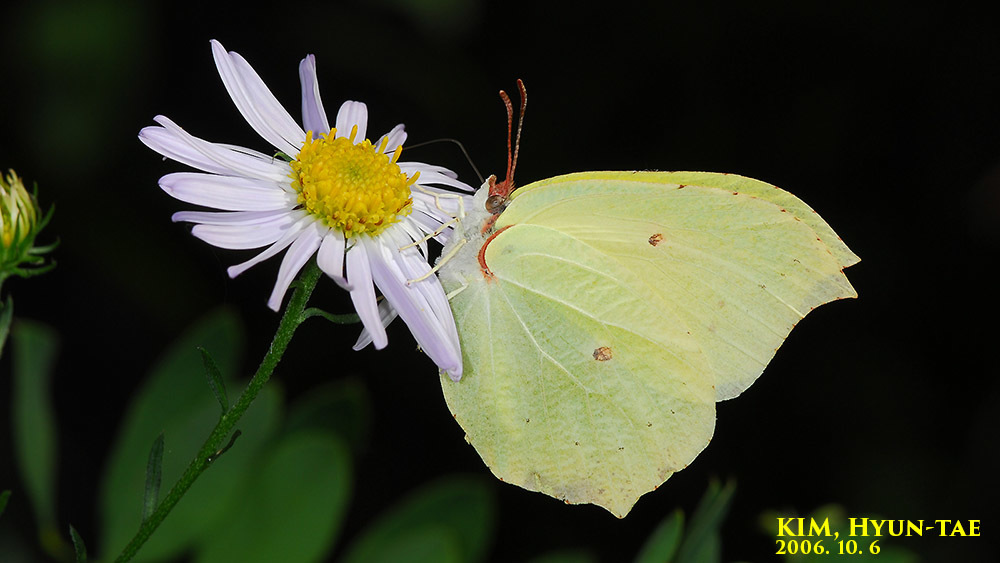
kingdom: Animalia
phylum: Arthropoda
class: Insecta
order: Lepidoptera
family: Pieridae
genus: Gonepteryx
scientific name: Gonepteryx aspasia
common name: Lesser brimstone
